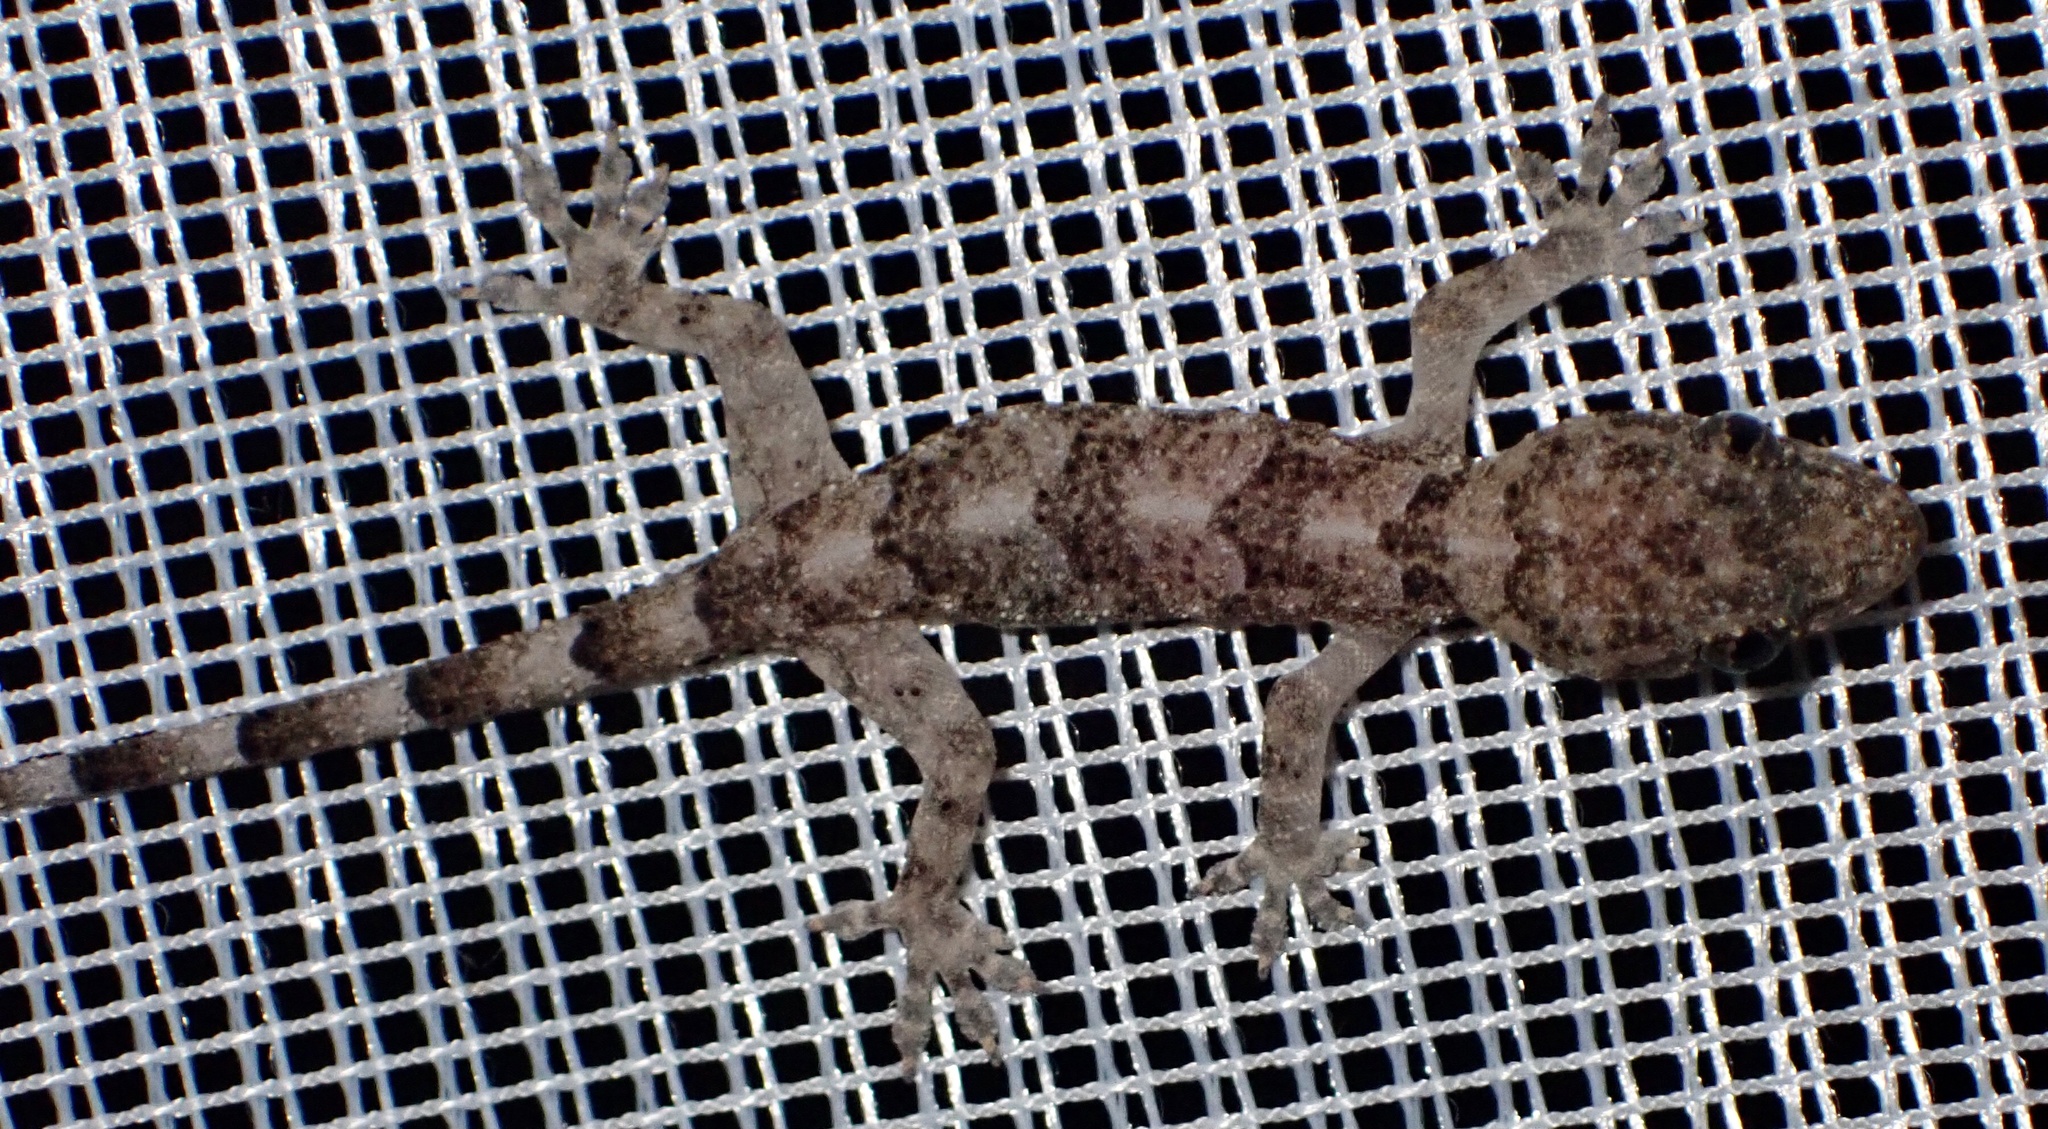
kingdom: Animalia
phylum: Chordata
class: Squamata
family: Gekkonidae
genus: Hemidactylus
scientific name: Hemidactylus mabouia
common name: House gecko
